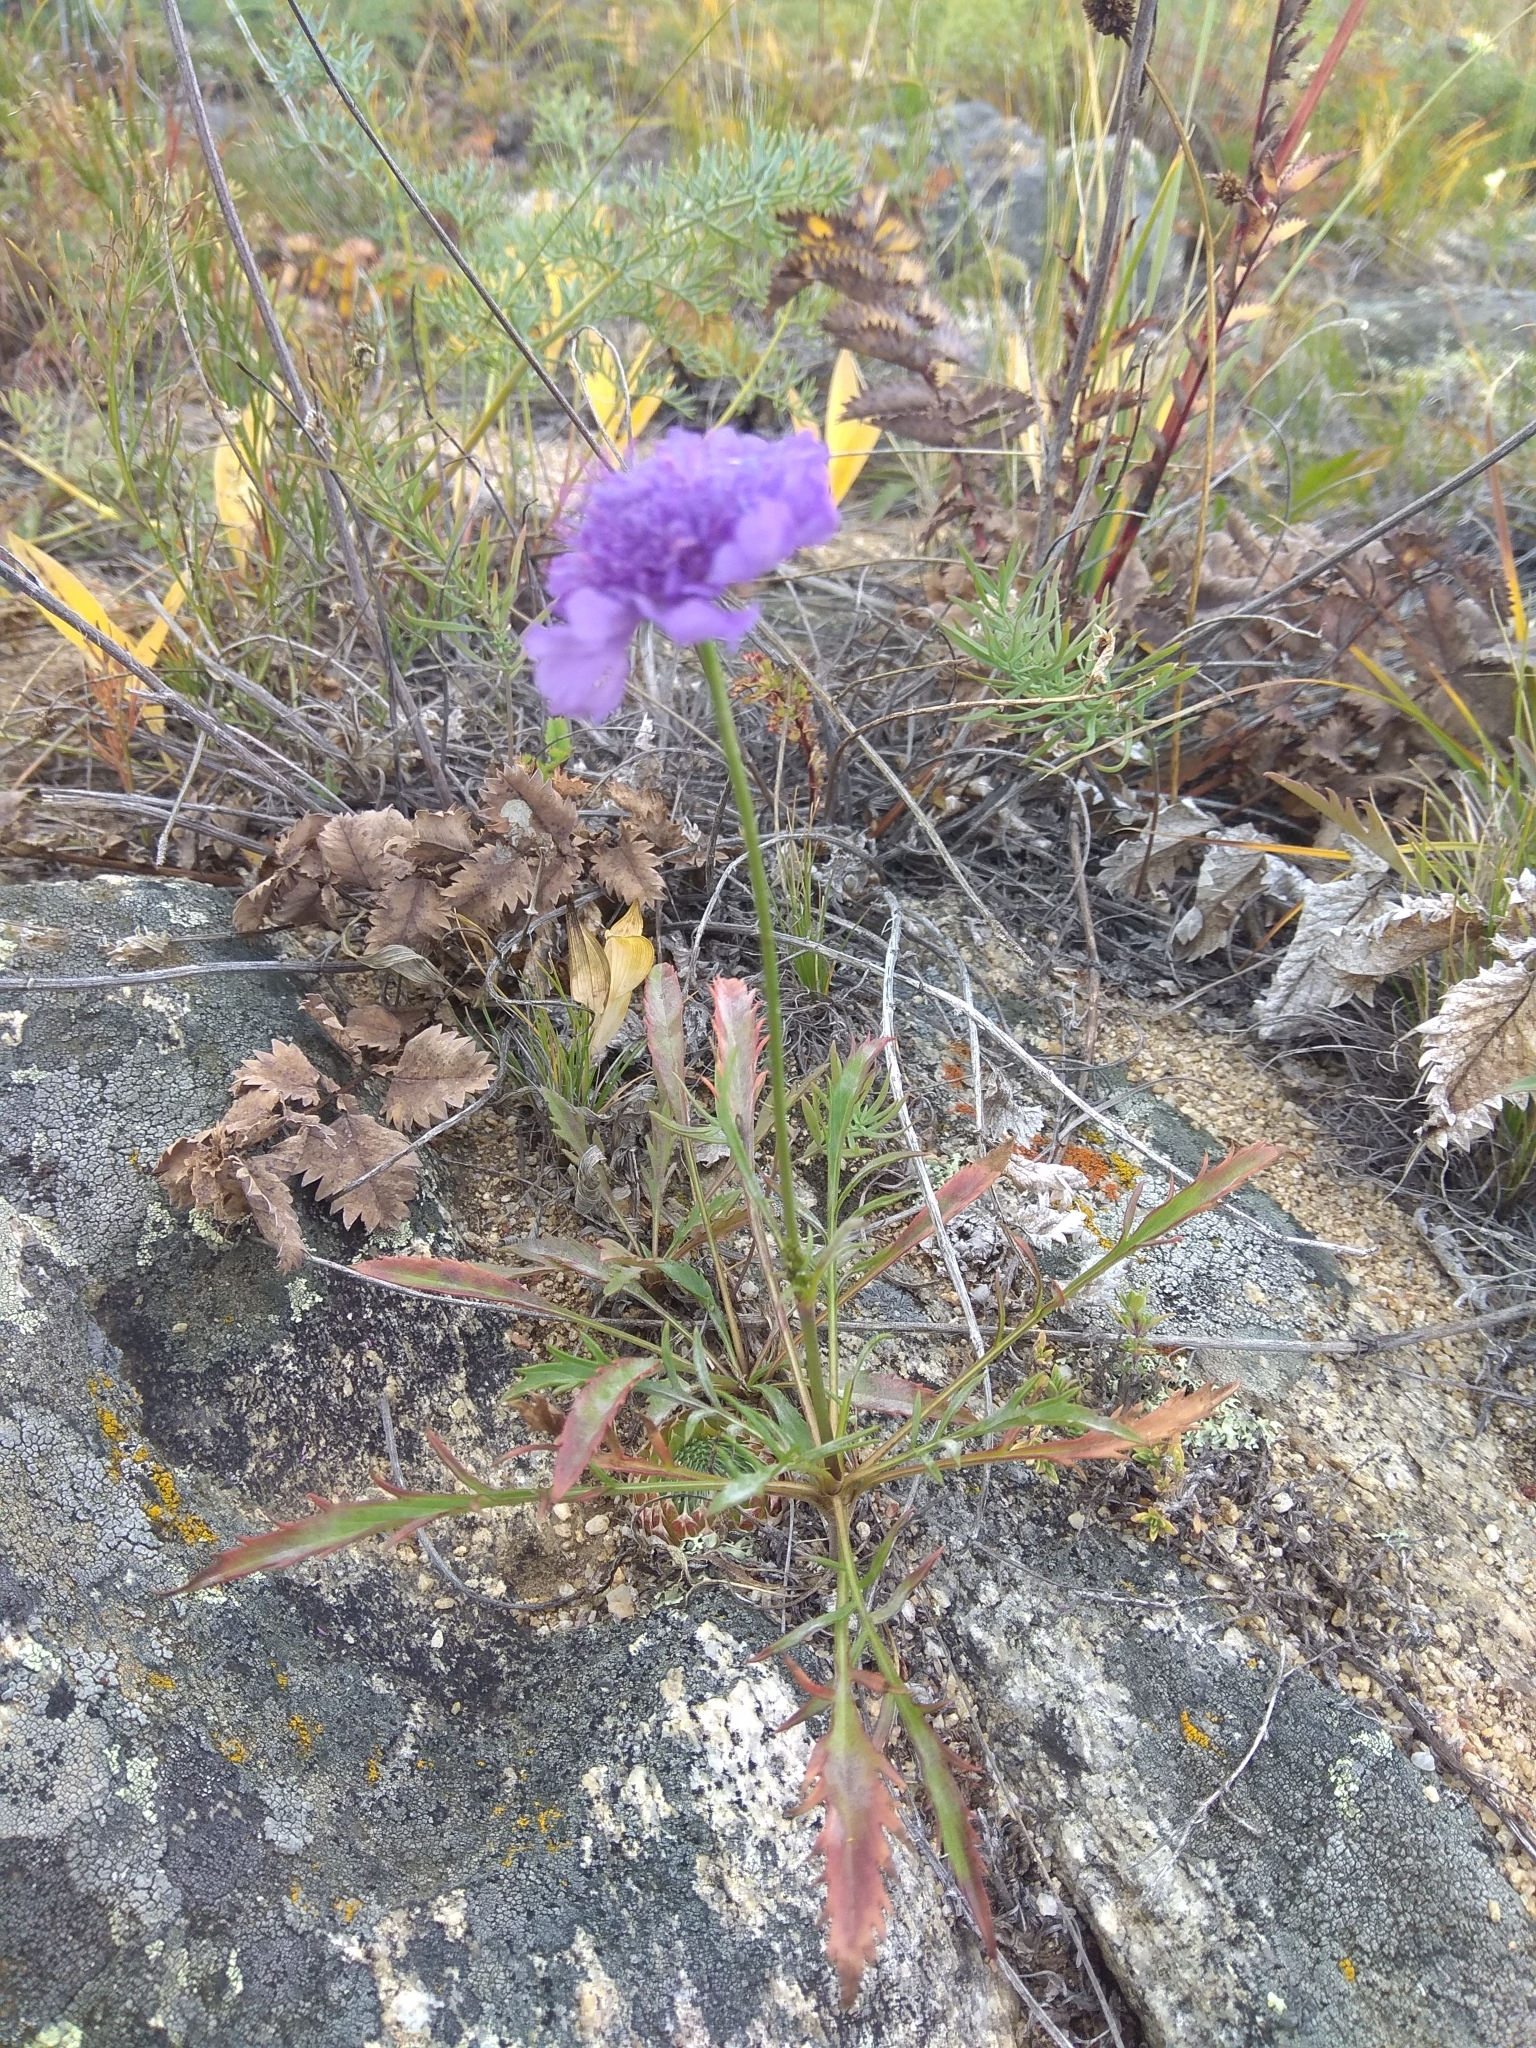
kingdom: Plantae
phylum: Tracheophyta
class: Magnoliopsida
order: Dipsacales
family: Caprifoliaceae
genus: Scabiosa
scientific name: Scabiosa comosa
